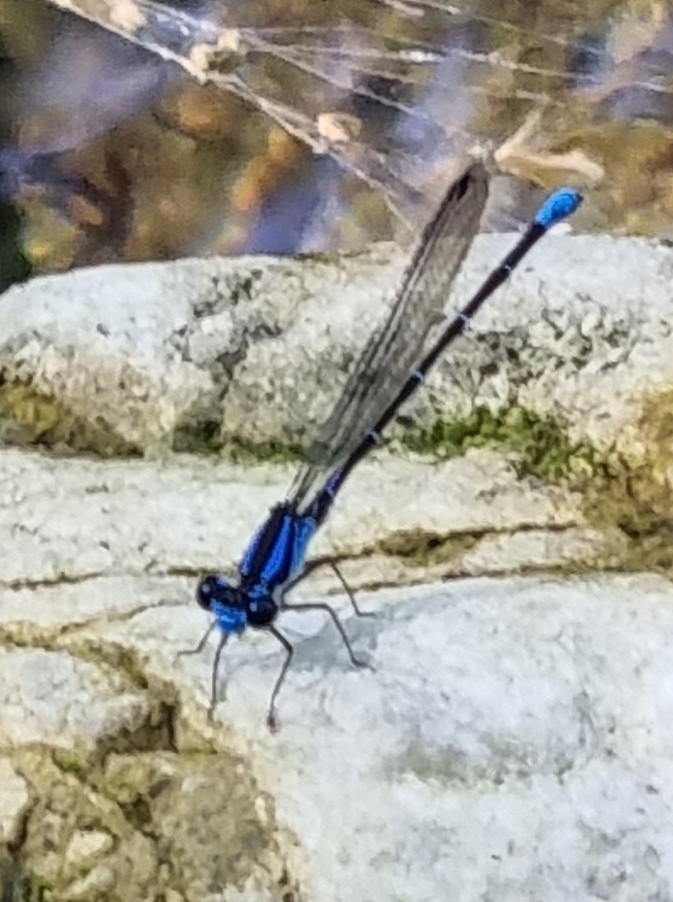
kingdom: Animalia
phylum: Arthropoda
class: Insecta
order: Odonata
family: Coenagrionidae
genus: Argia
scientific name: Argia oculata
